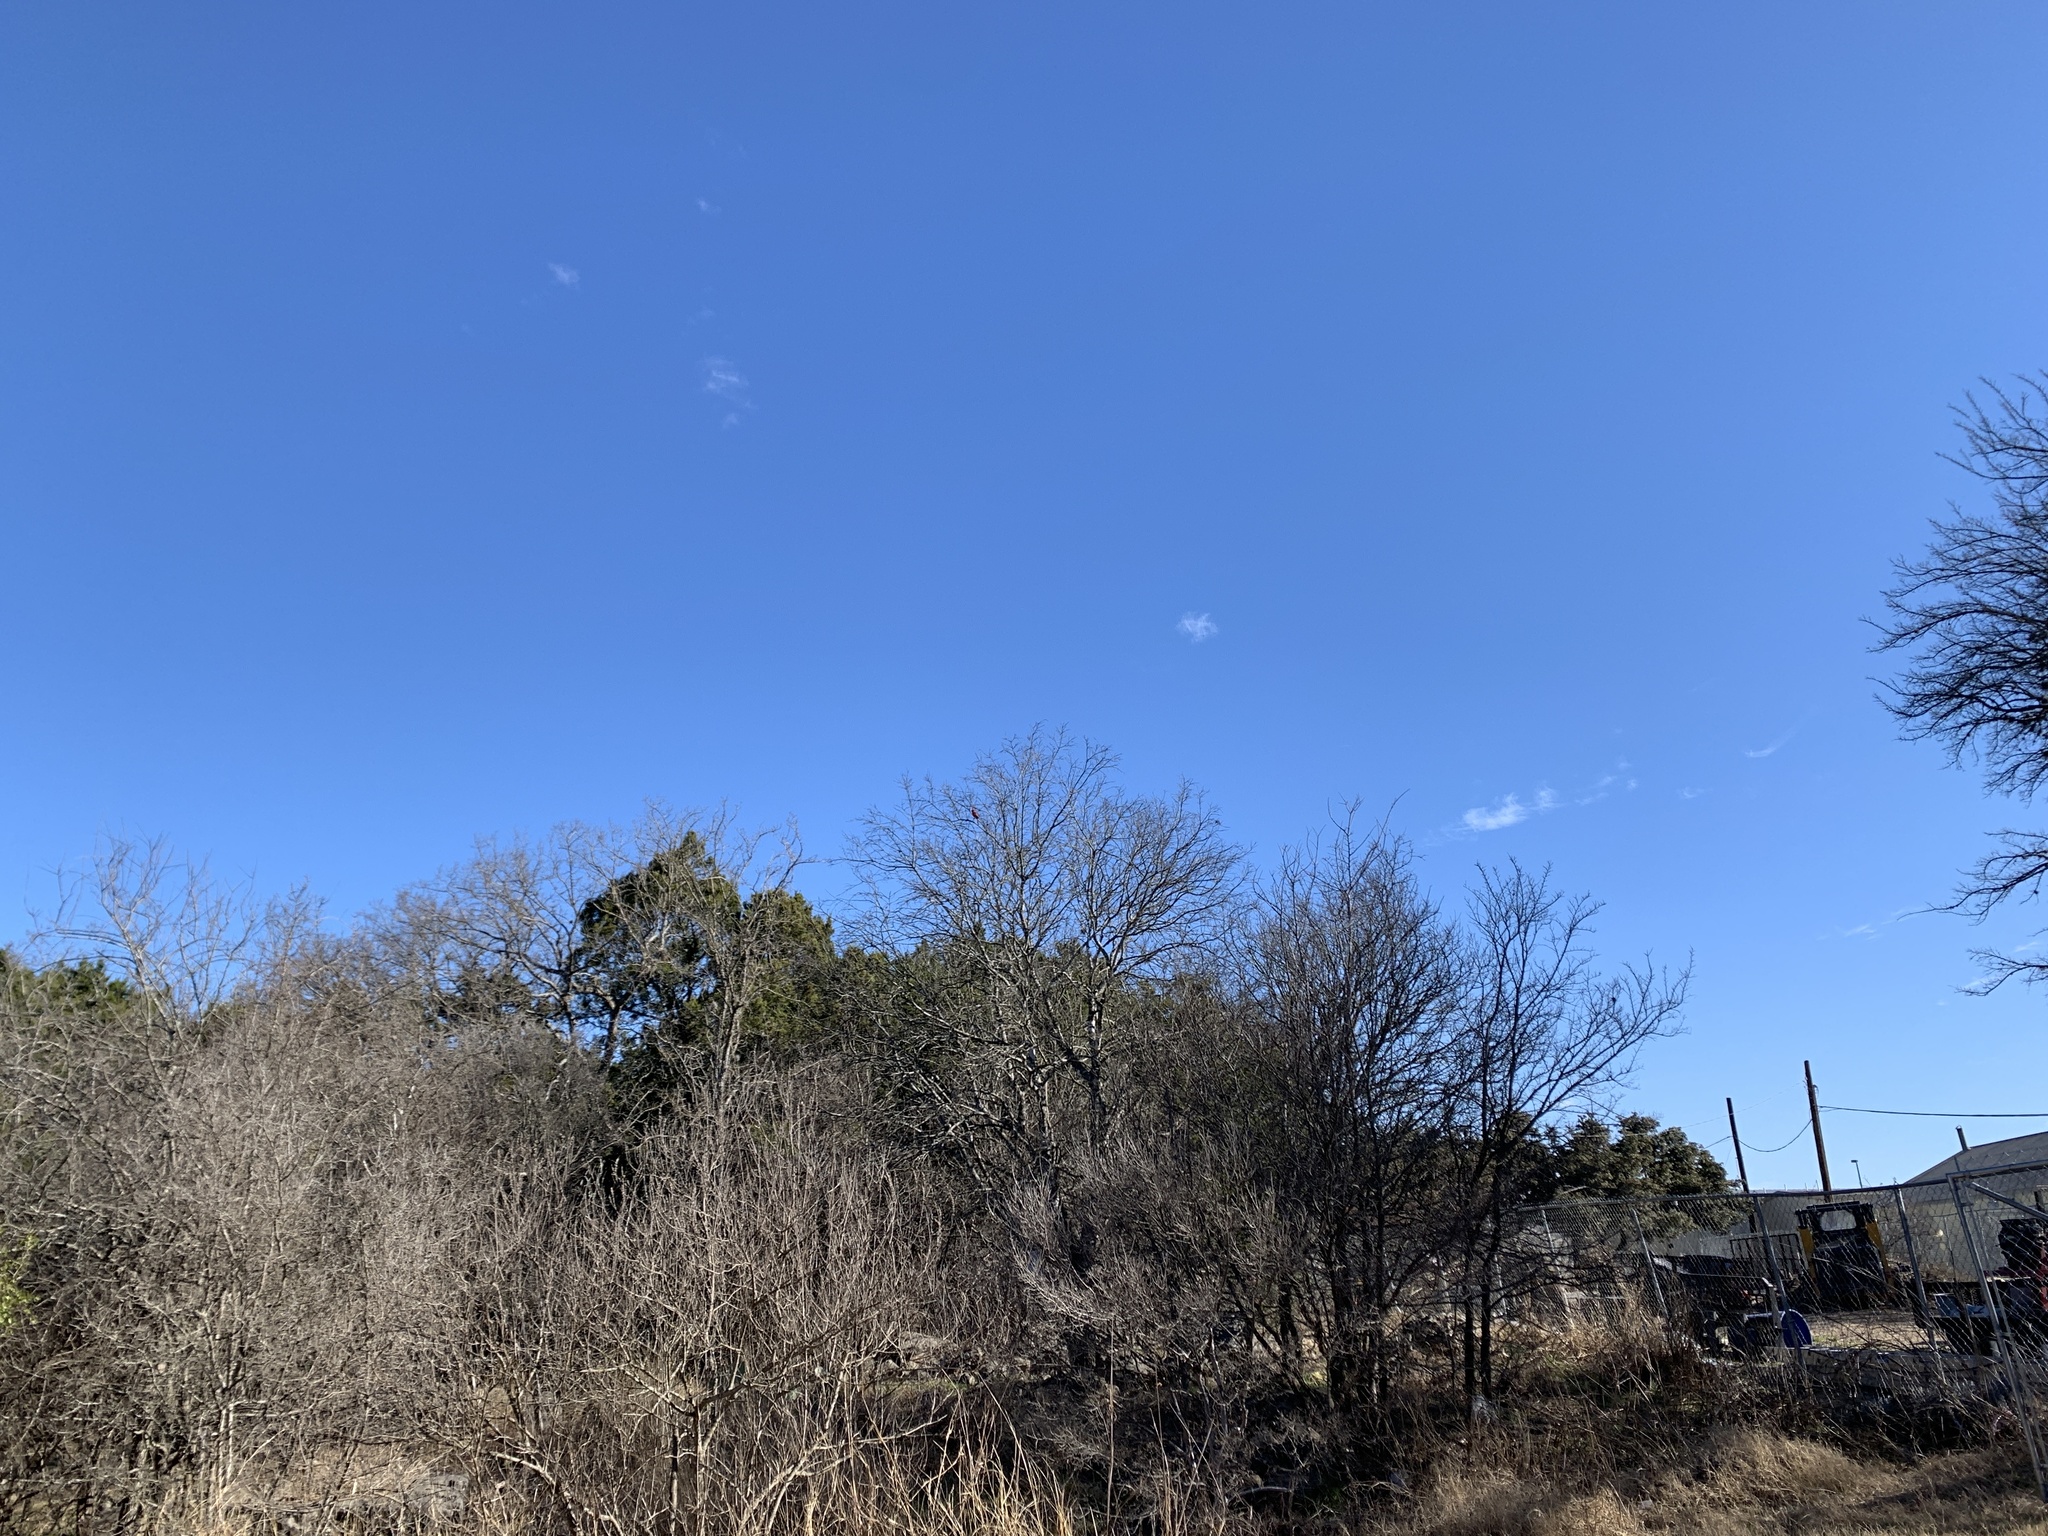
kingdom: Animalia
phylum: Chordata
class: Aves
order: Passeriformes
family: Cardinalidae
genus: Cardinalis
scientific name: Cardinalis cardinalis
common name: Northern cardinal
